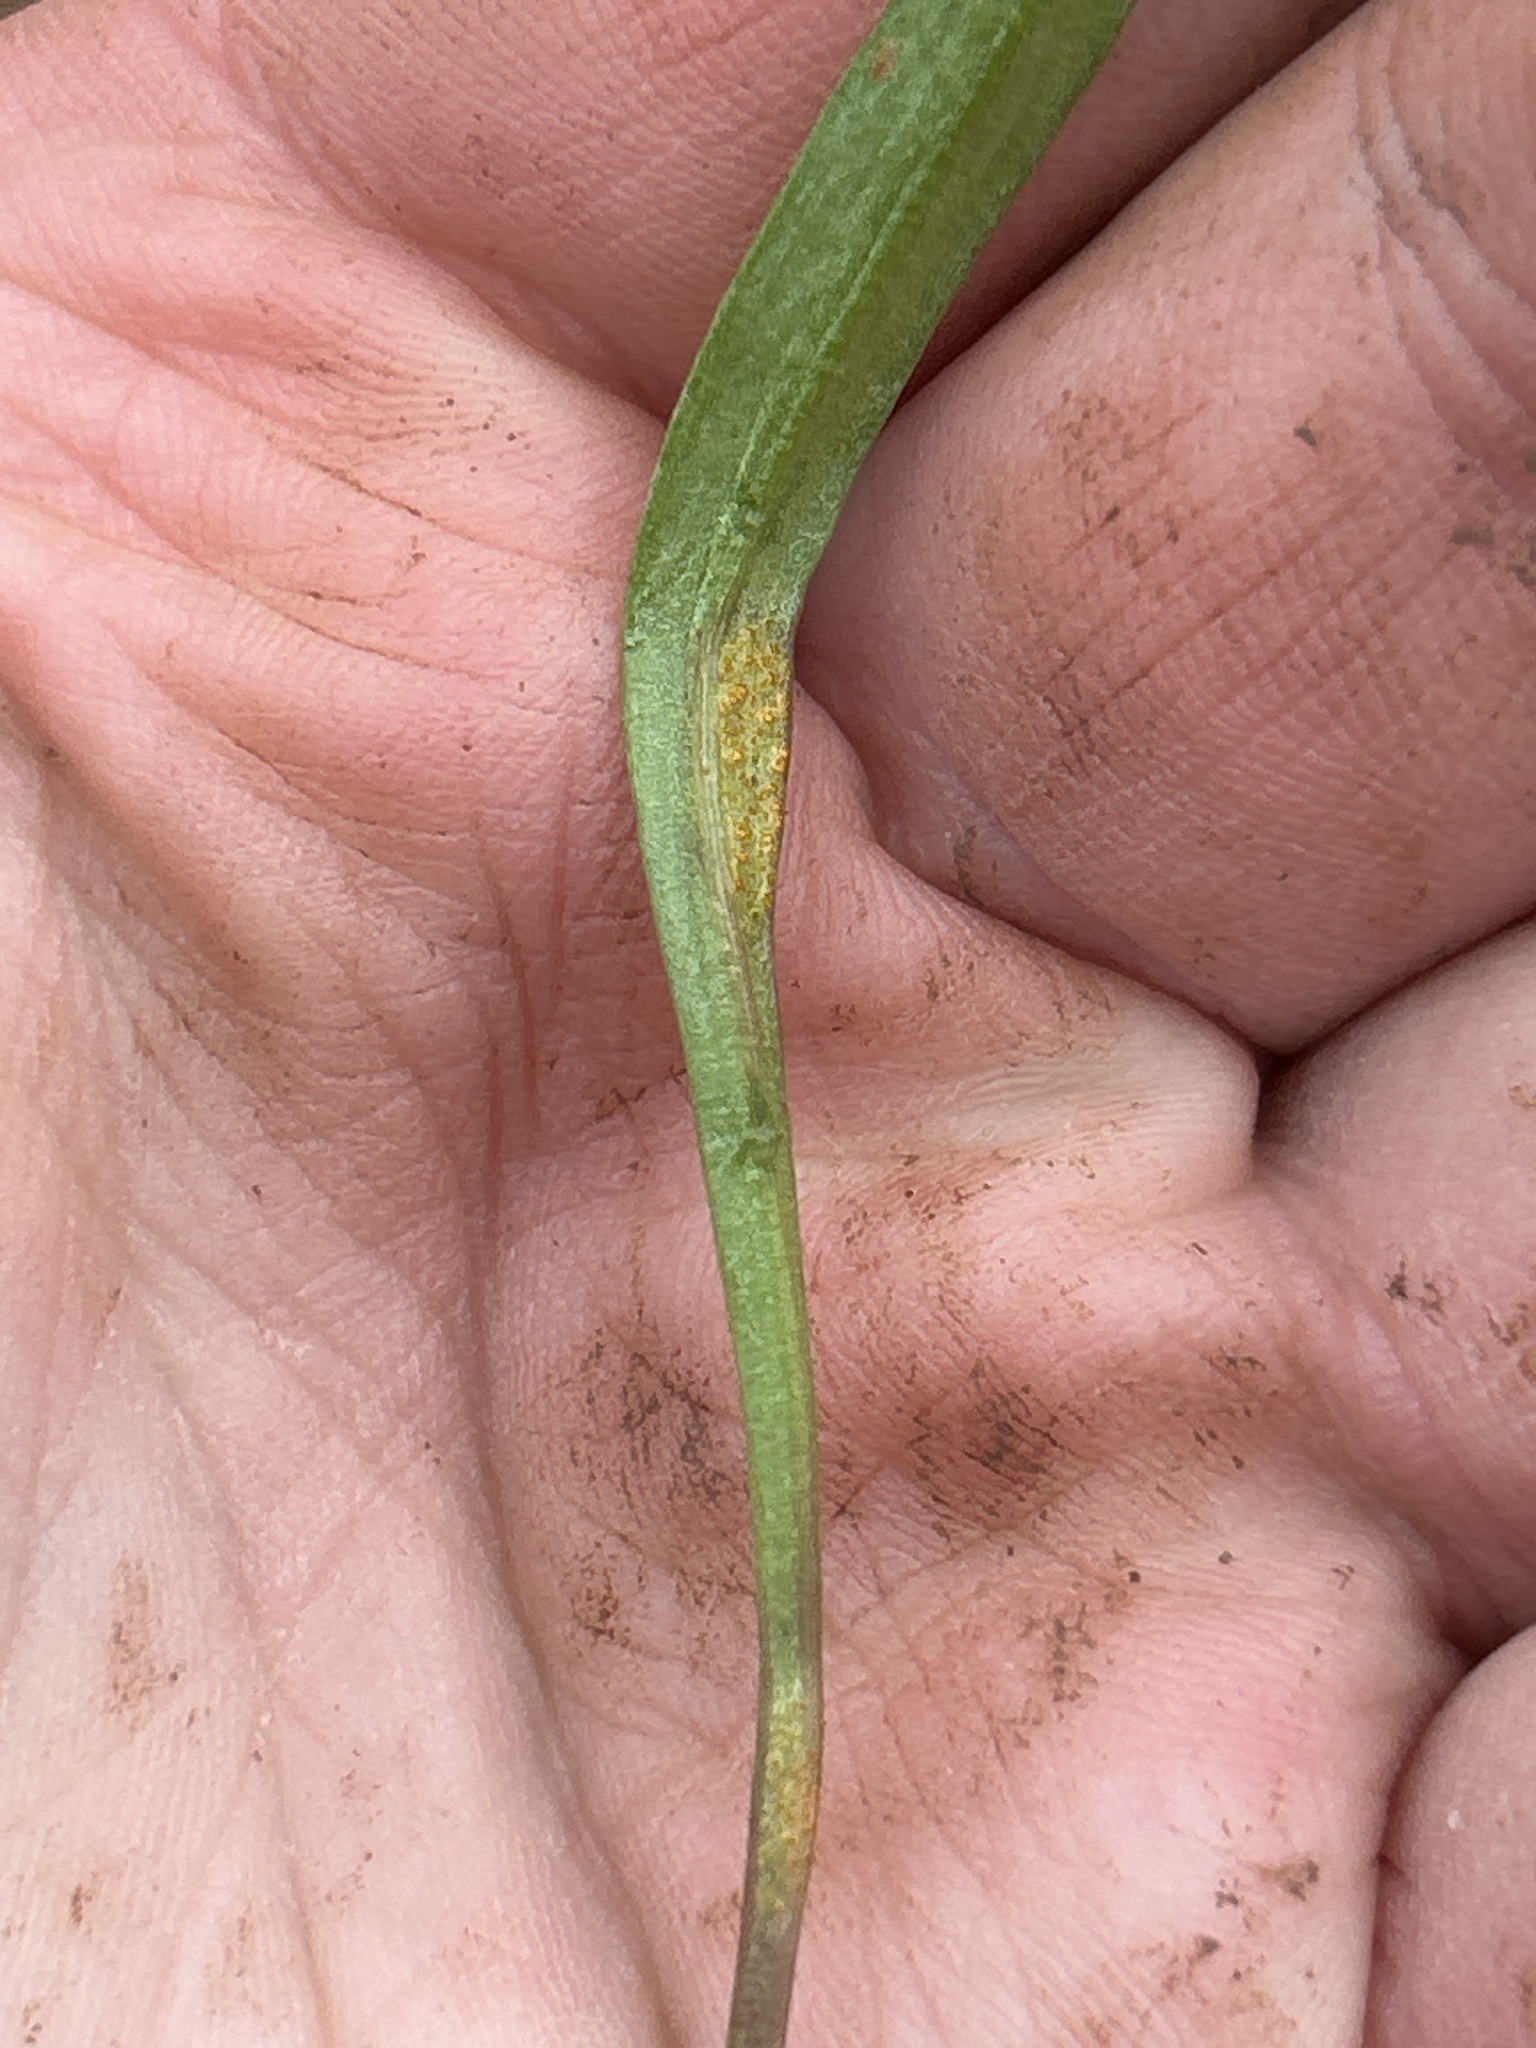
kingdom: Fungi
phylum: Basidiomycota
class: Pucciniomycetes
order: Pucciniales
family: Pucciniaceae
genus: Puccinia
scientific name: Puccinia mariae-wilsoniae
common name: Spring beauty rust
